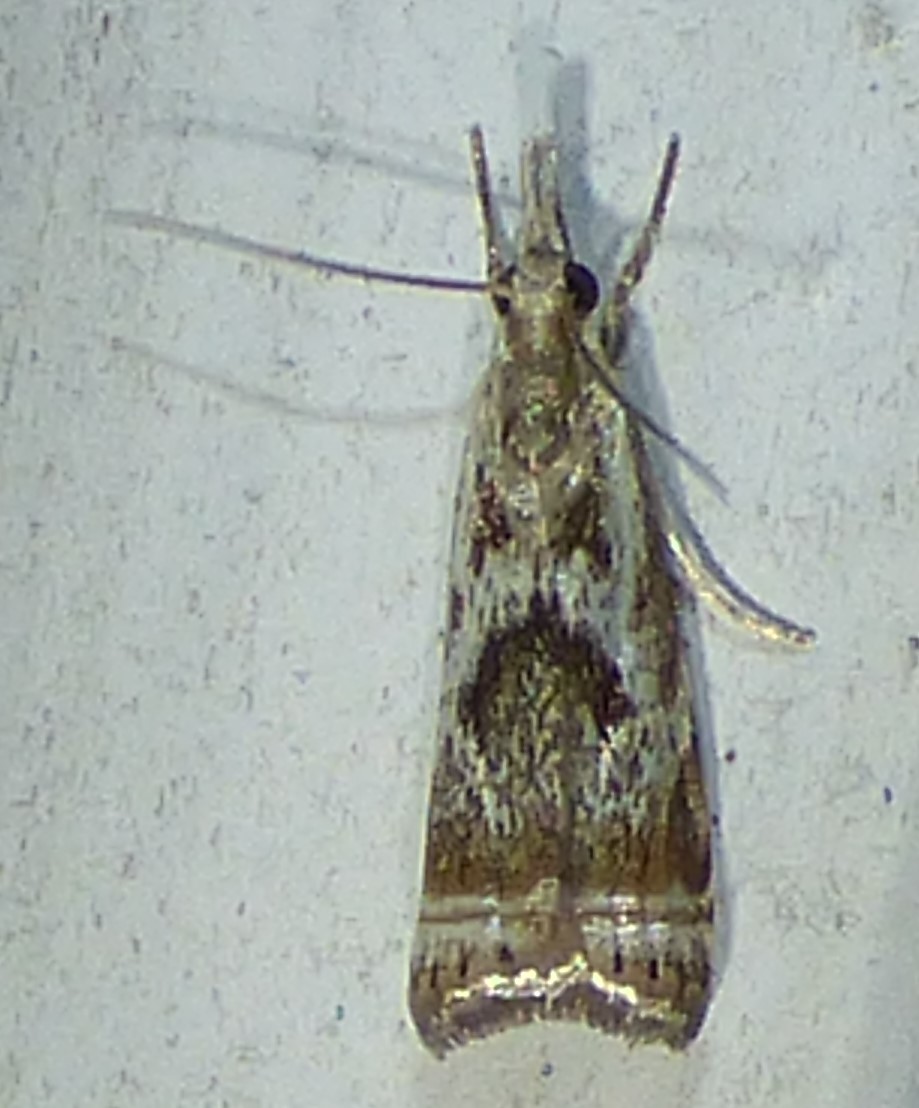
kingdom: Animalia
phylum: Arthropoda
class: Insecta
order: Lepidoptera
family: Crambidae
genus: Microcrambus
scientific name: Microcrambus elegans
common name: Elegant grass-veneer
